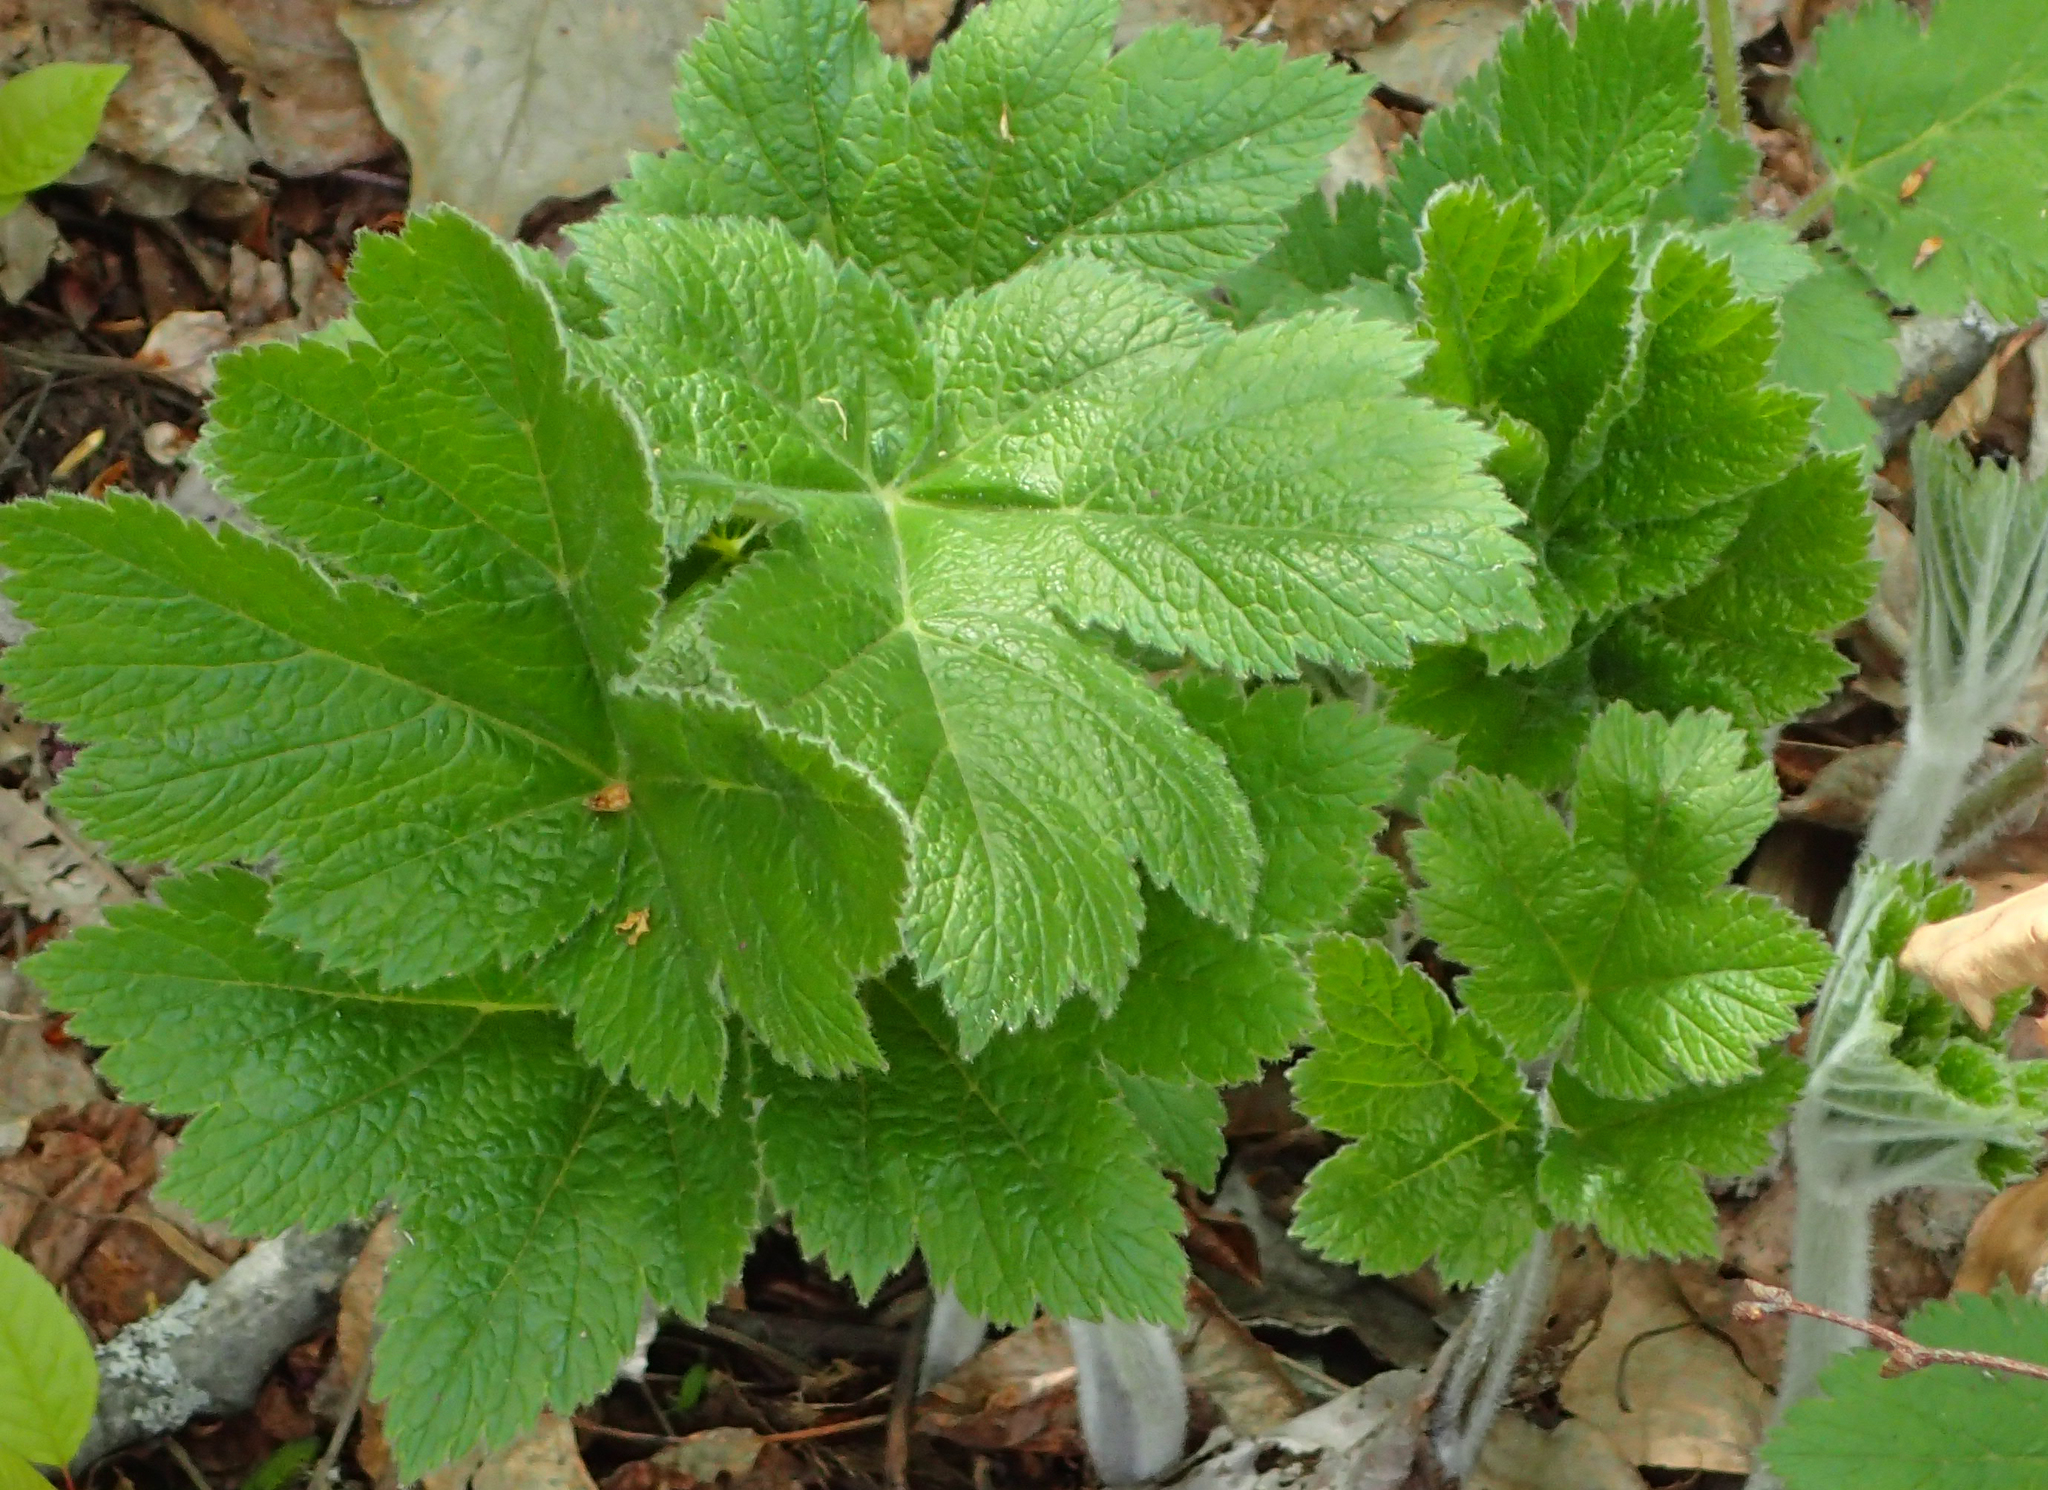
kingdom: Plantae
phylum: Tracheophyta
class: Magnoliopsida
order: Apiales
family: Apiaceae
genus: Heracleum
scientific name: Heracleum maximum
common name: American cow parsnip
